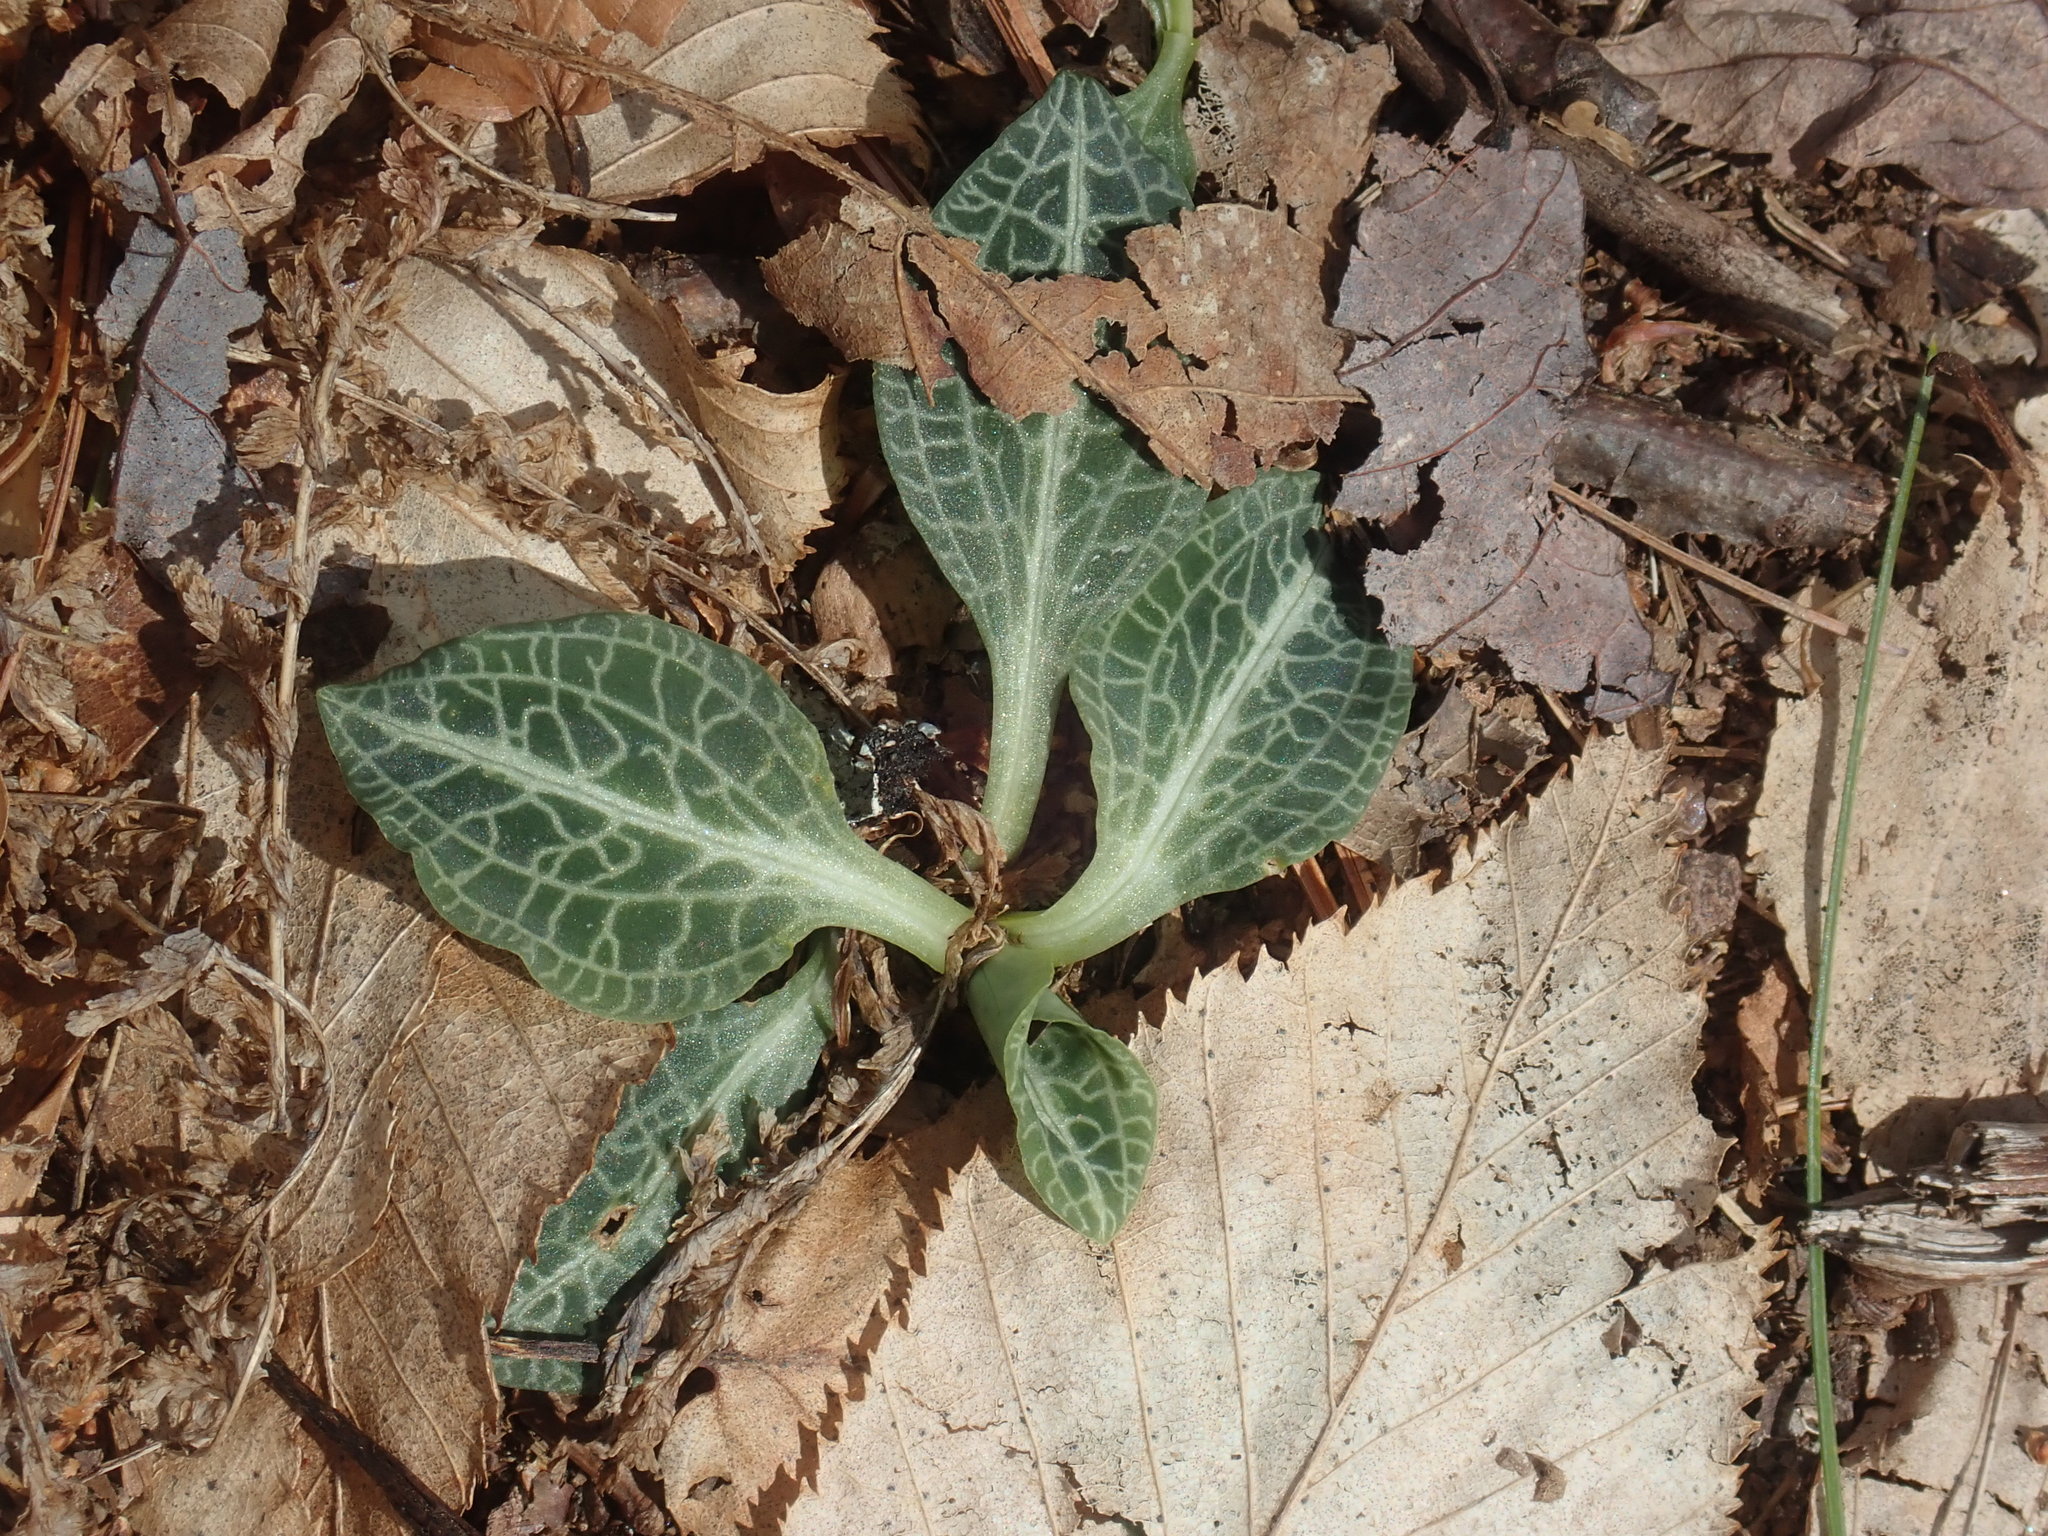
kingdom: Plantae
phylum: Tracheophyta
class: Liliopsida
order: Asparagales
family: Orchidaceae
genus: Goodyera
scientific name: Goodyera pubescens
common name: Downy rattlesnake-plantain
